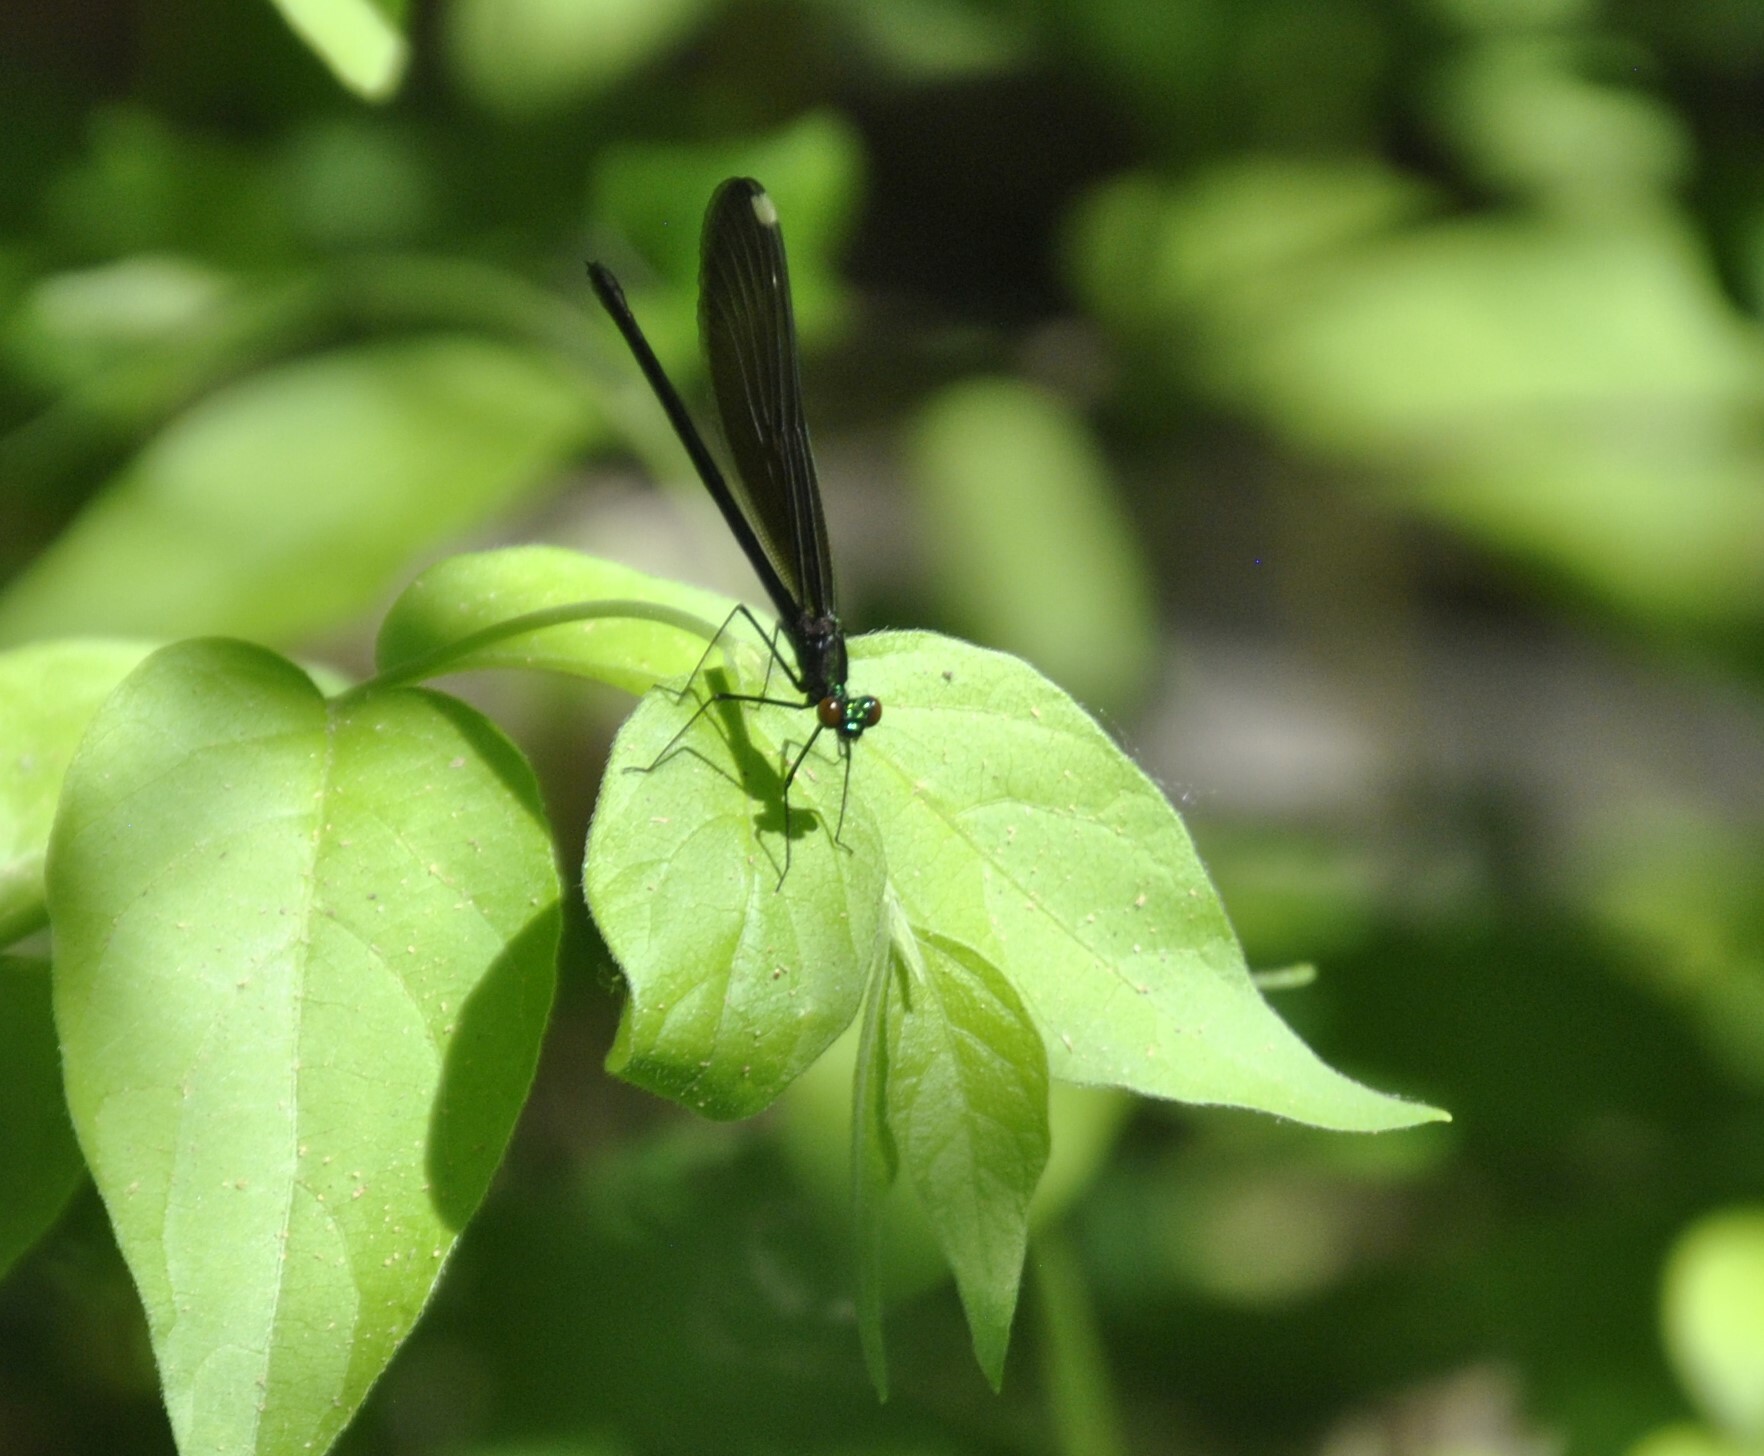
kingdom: Animalia
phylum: Arthropoda
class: Insecta
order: Odonata
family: Calopterygidae
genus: Calopteryx
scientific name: Calopteryx maculata
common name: Ebony jewelwing
